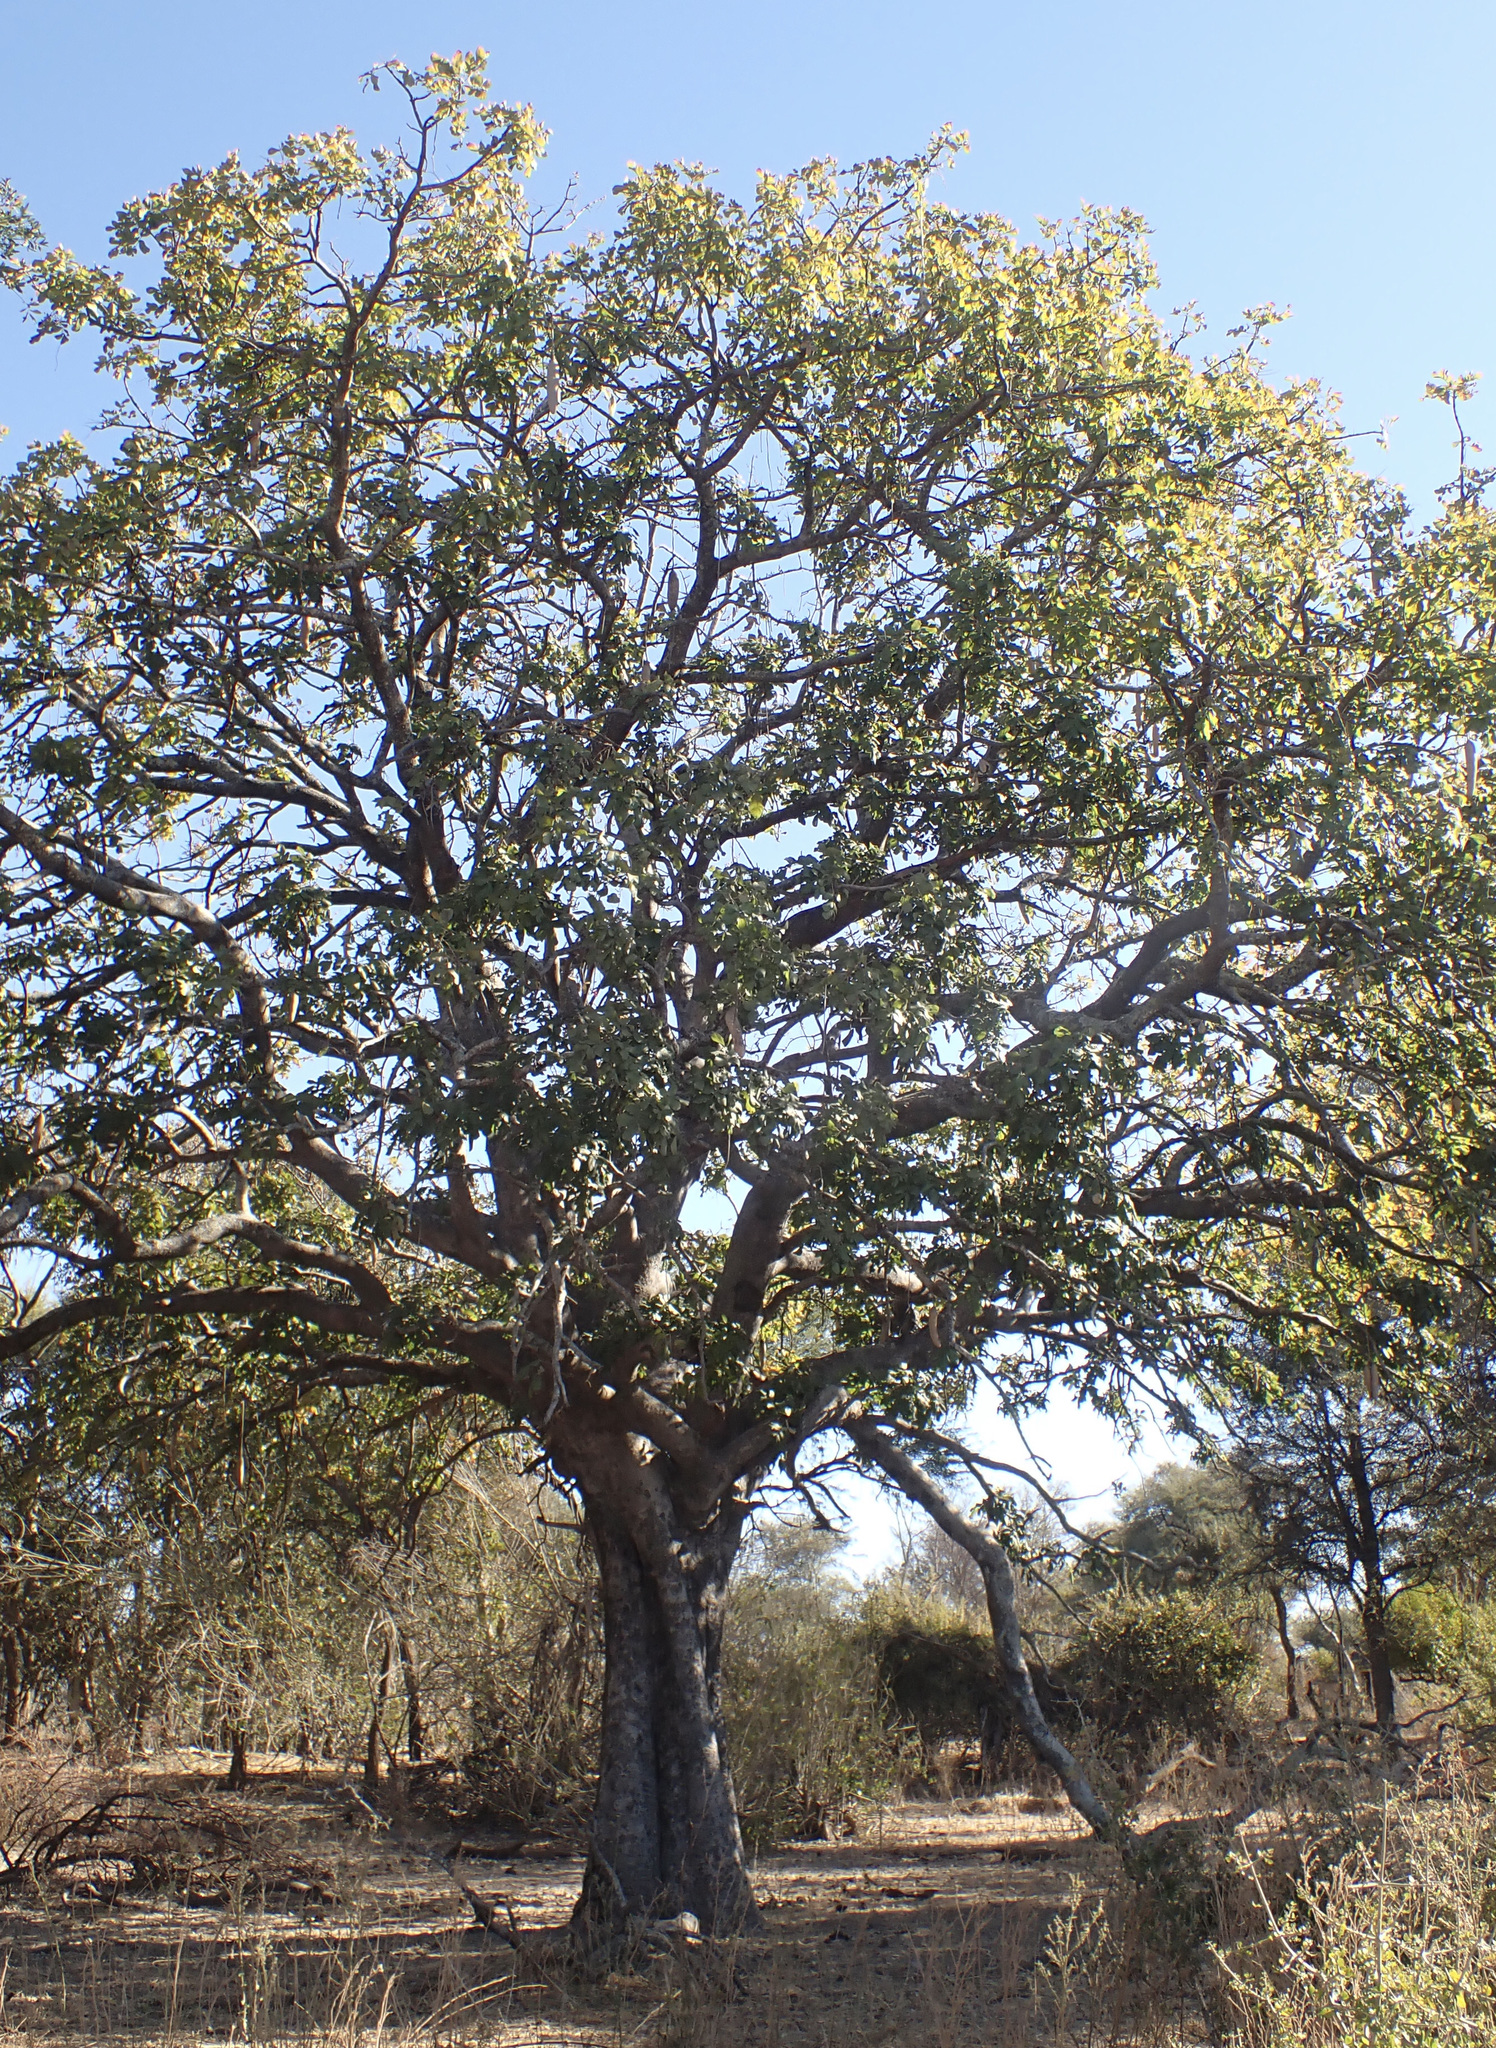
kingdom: Plantae
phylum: Tracheophyta
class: Magnoliopsida
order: Lamiales
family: Bignoniaceae
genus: Kigelia
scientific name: Kigelia africana
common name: Sausage tree
